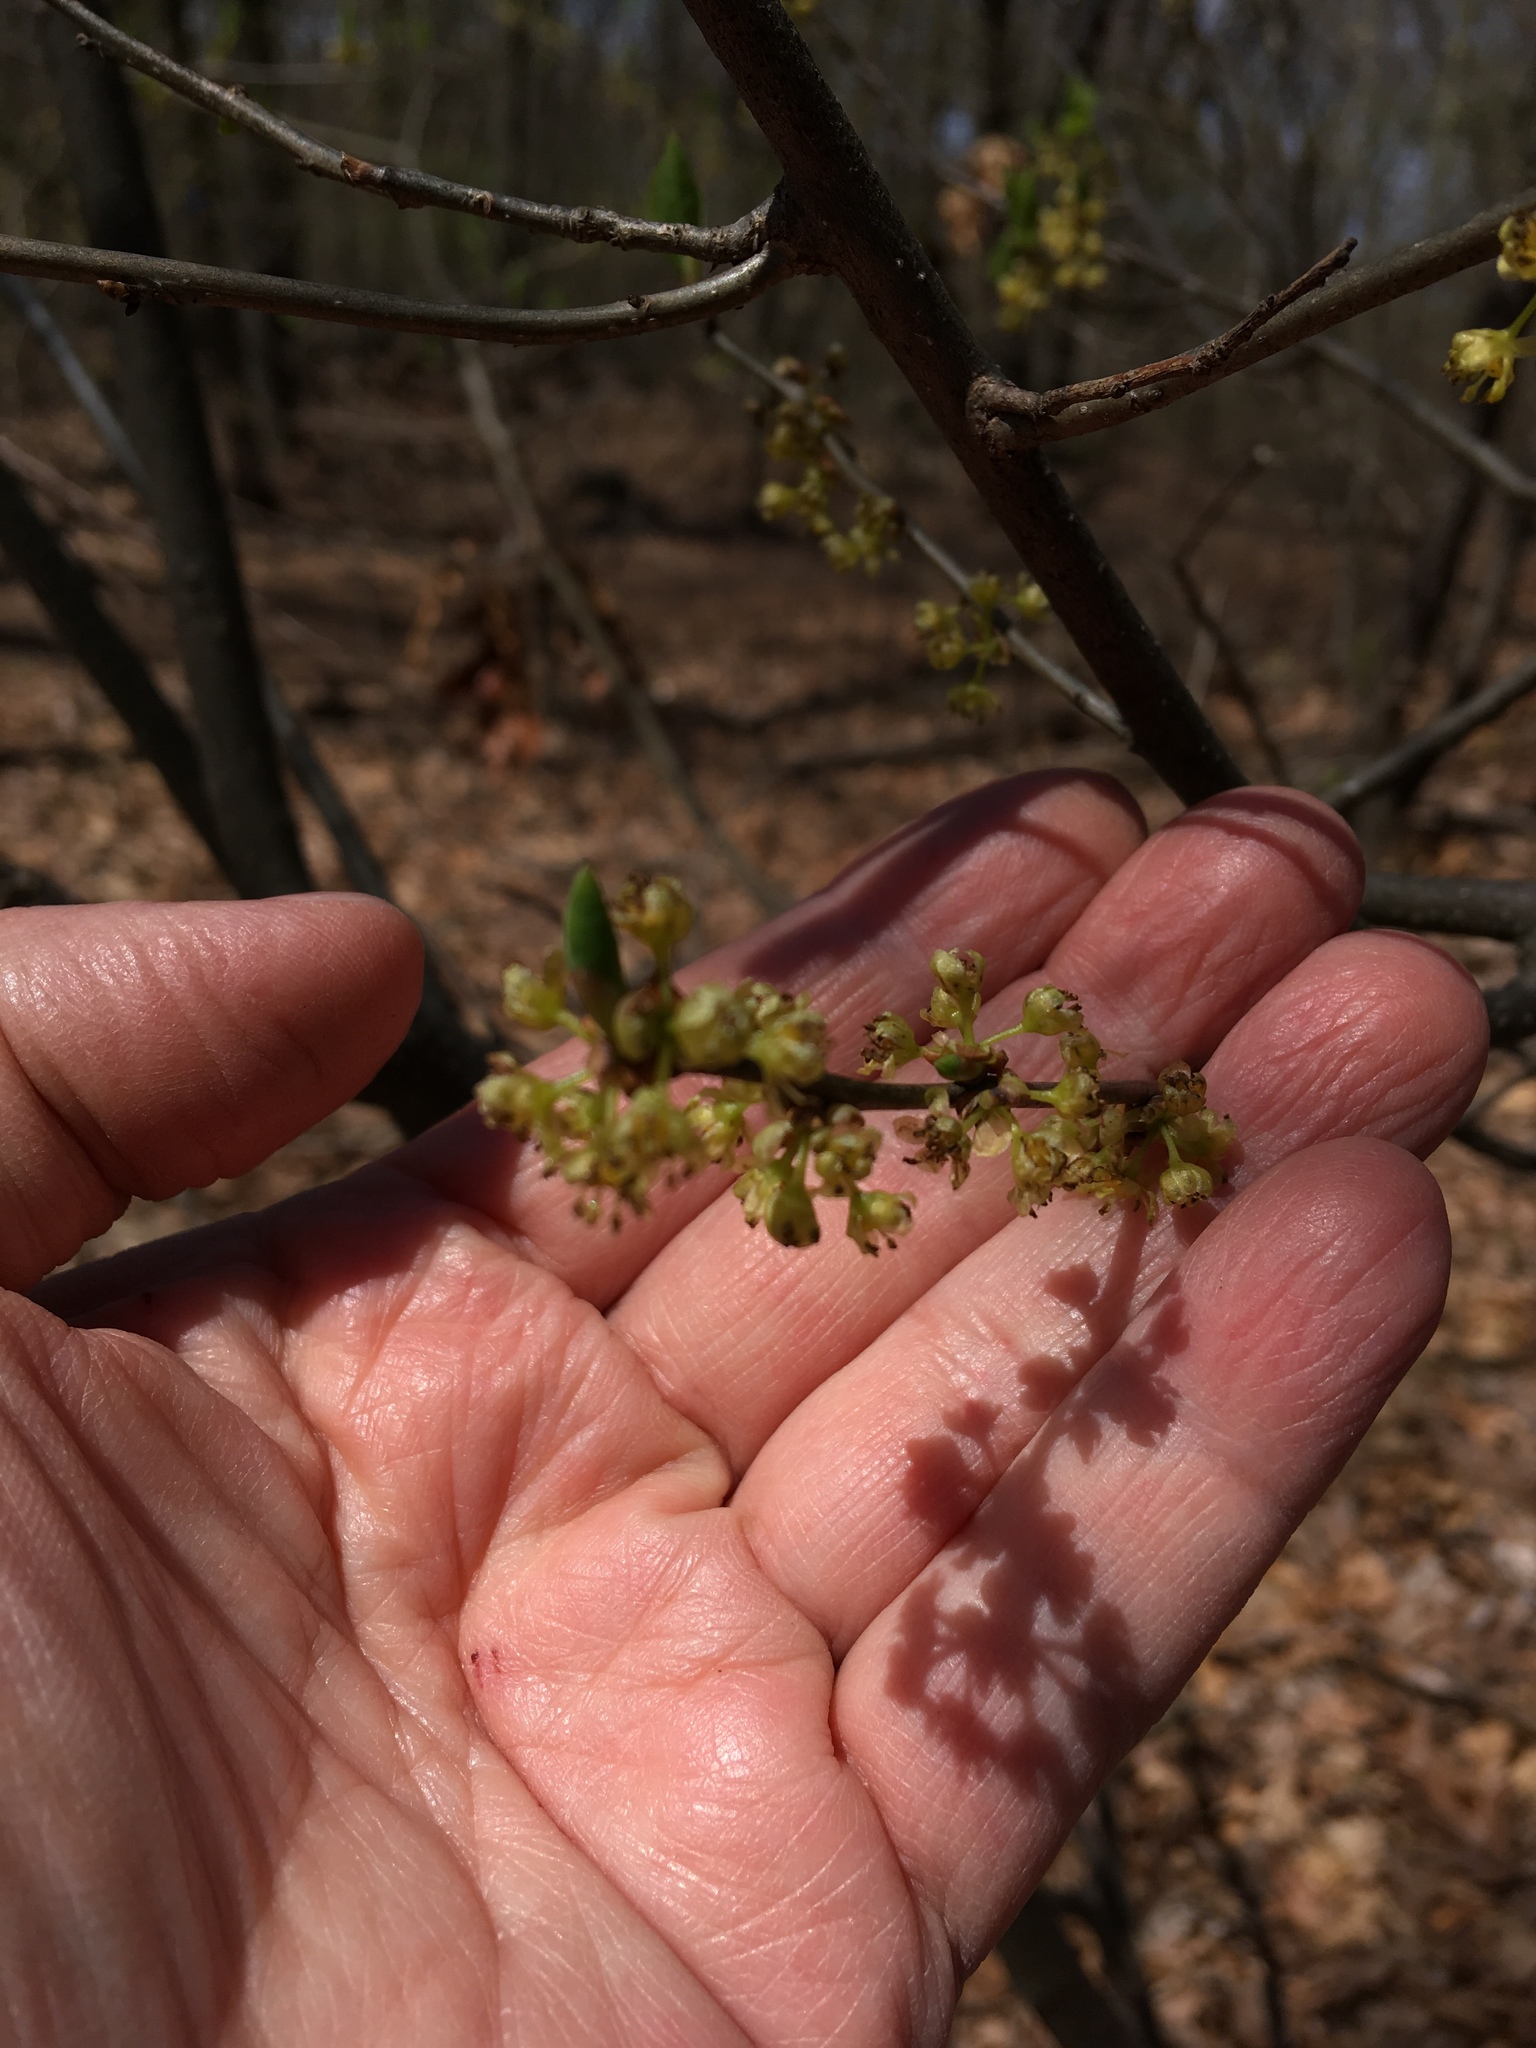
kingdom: Plantae
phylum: Tracheophyta
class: Magnoliopsida
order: Laurales
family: Lauraceae
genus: Lindera
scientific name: Lindera benzoin
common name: Spicebush
